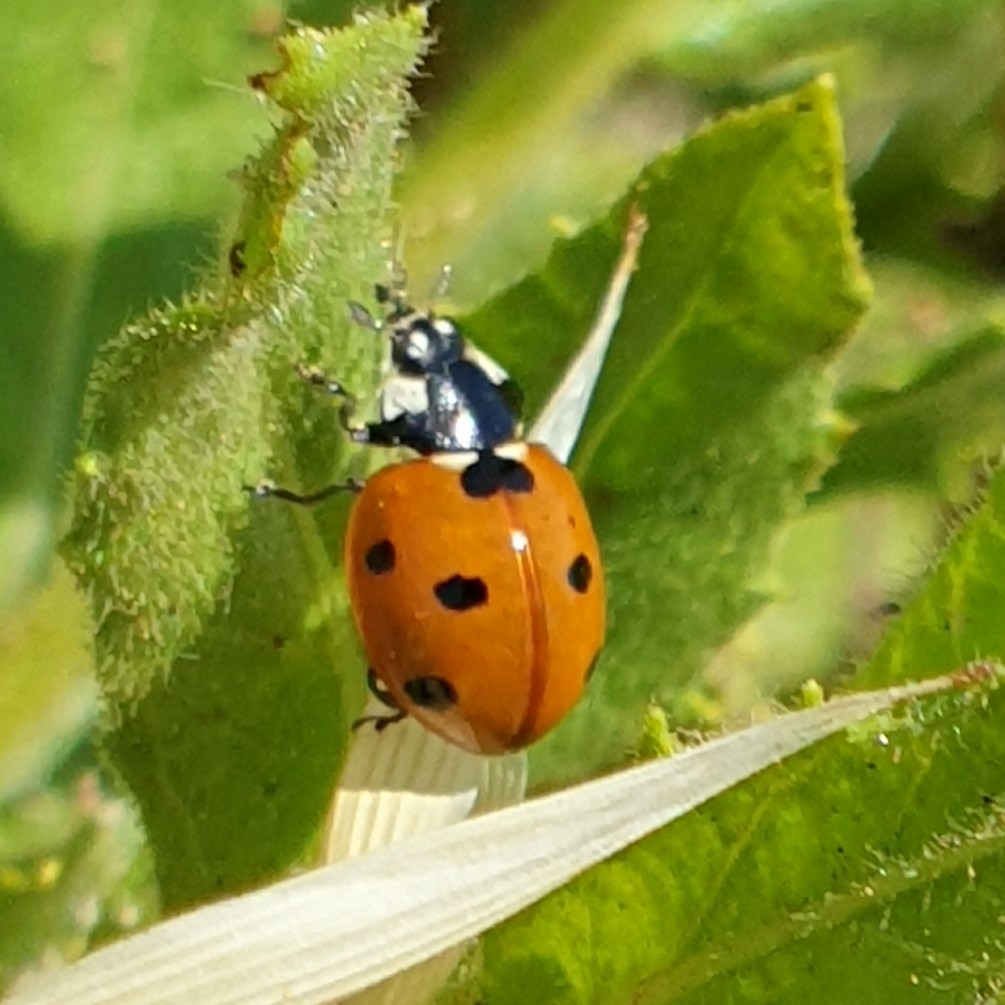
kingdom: Animalia
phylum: Arthropoda
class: Insecta
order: Coleoptera
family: Coccinellidae
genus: Coccinella
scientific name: Coccinella septempunctata
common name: Sevenspotted lady beetle
